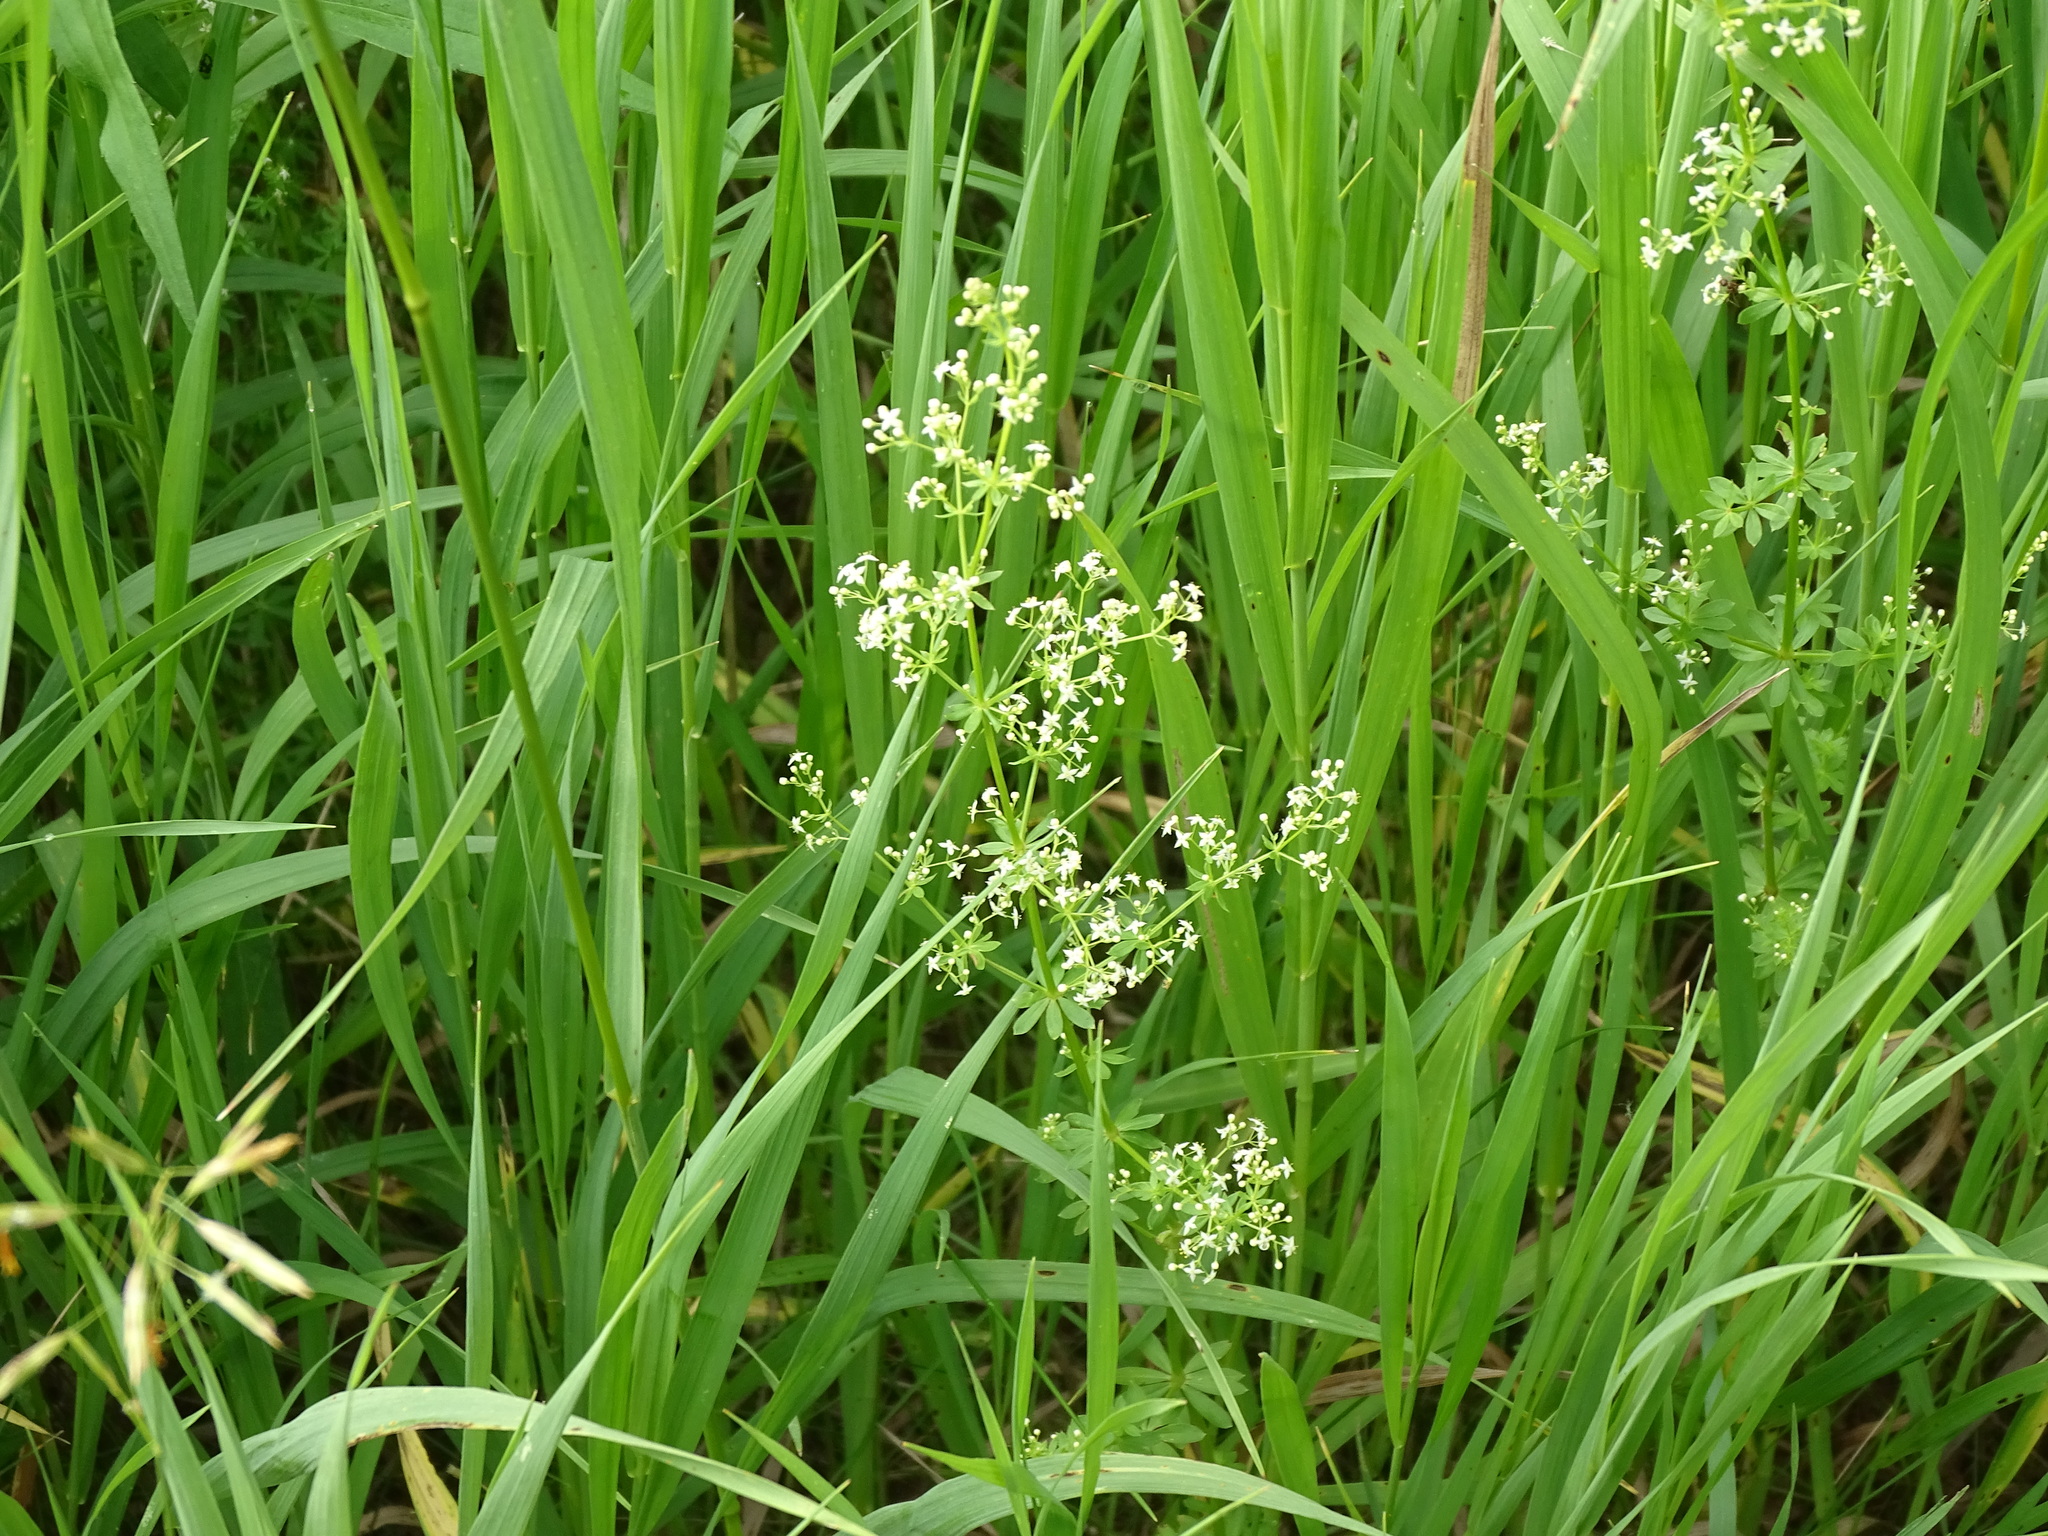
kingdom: Plantae
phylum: Tracheophyta
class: Magnoliopsida
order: Gentianales
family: Rubiaceae
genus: Galium
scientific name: Galium album
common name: White bedstraw
